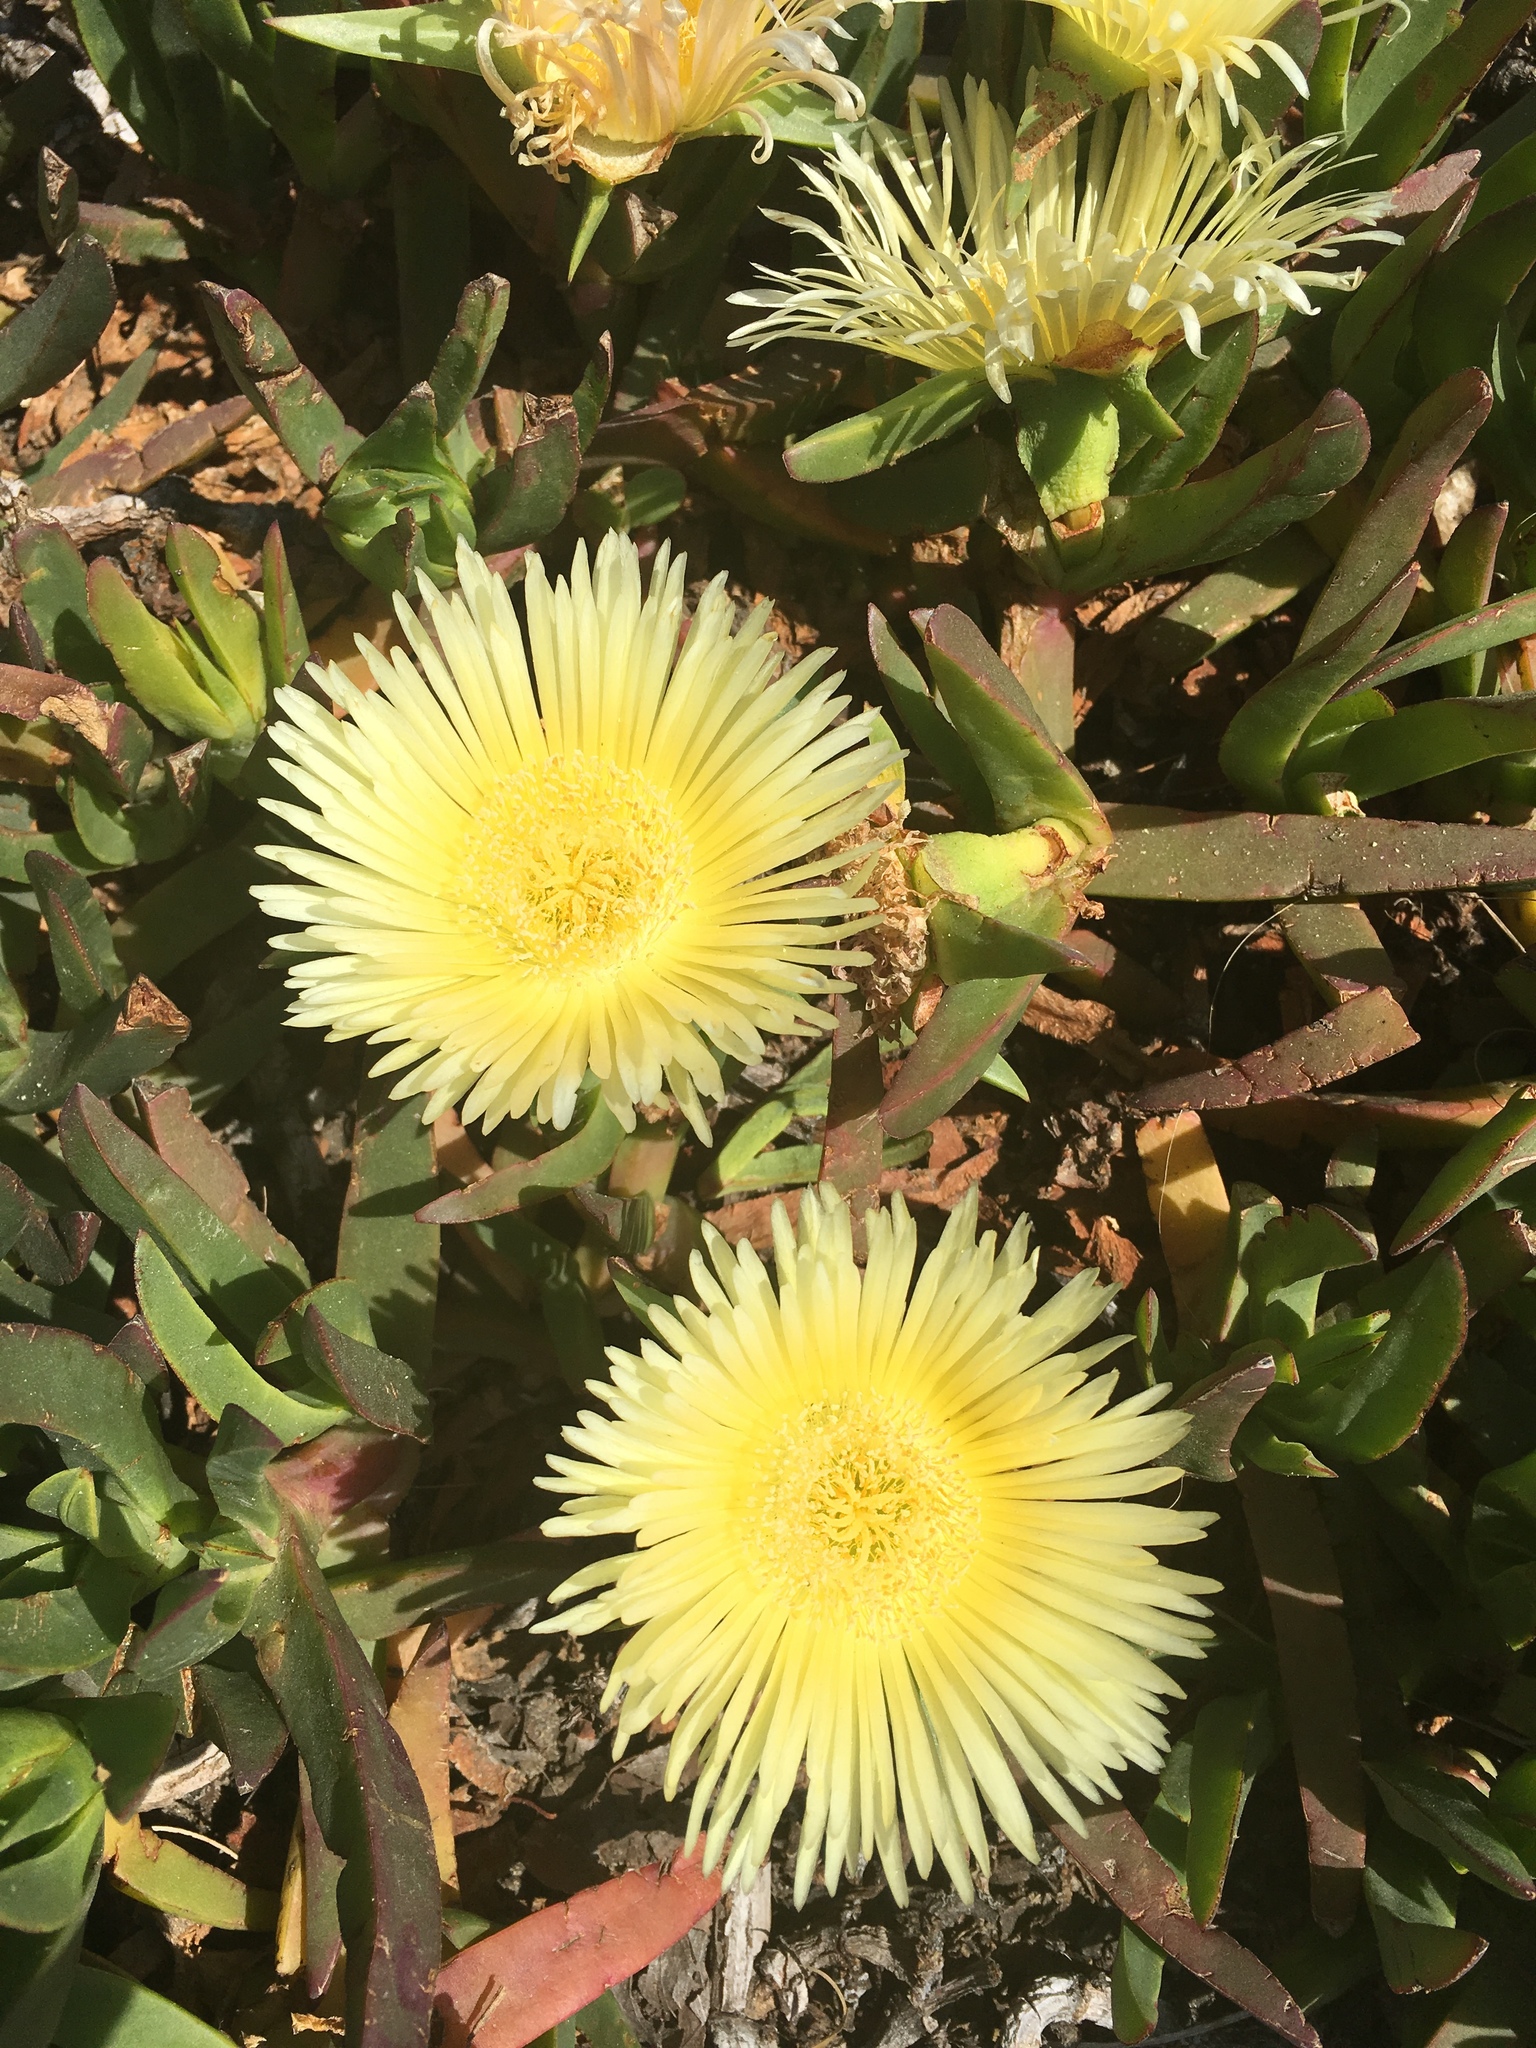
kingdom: Plantae
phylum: Tracheophyta
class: Magnoliopsida
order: Caryophyllales
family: Aizoaceae
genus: Carpobrotus
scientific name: Carpobrotus edulis
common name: Hottentot-fig
